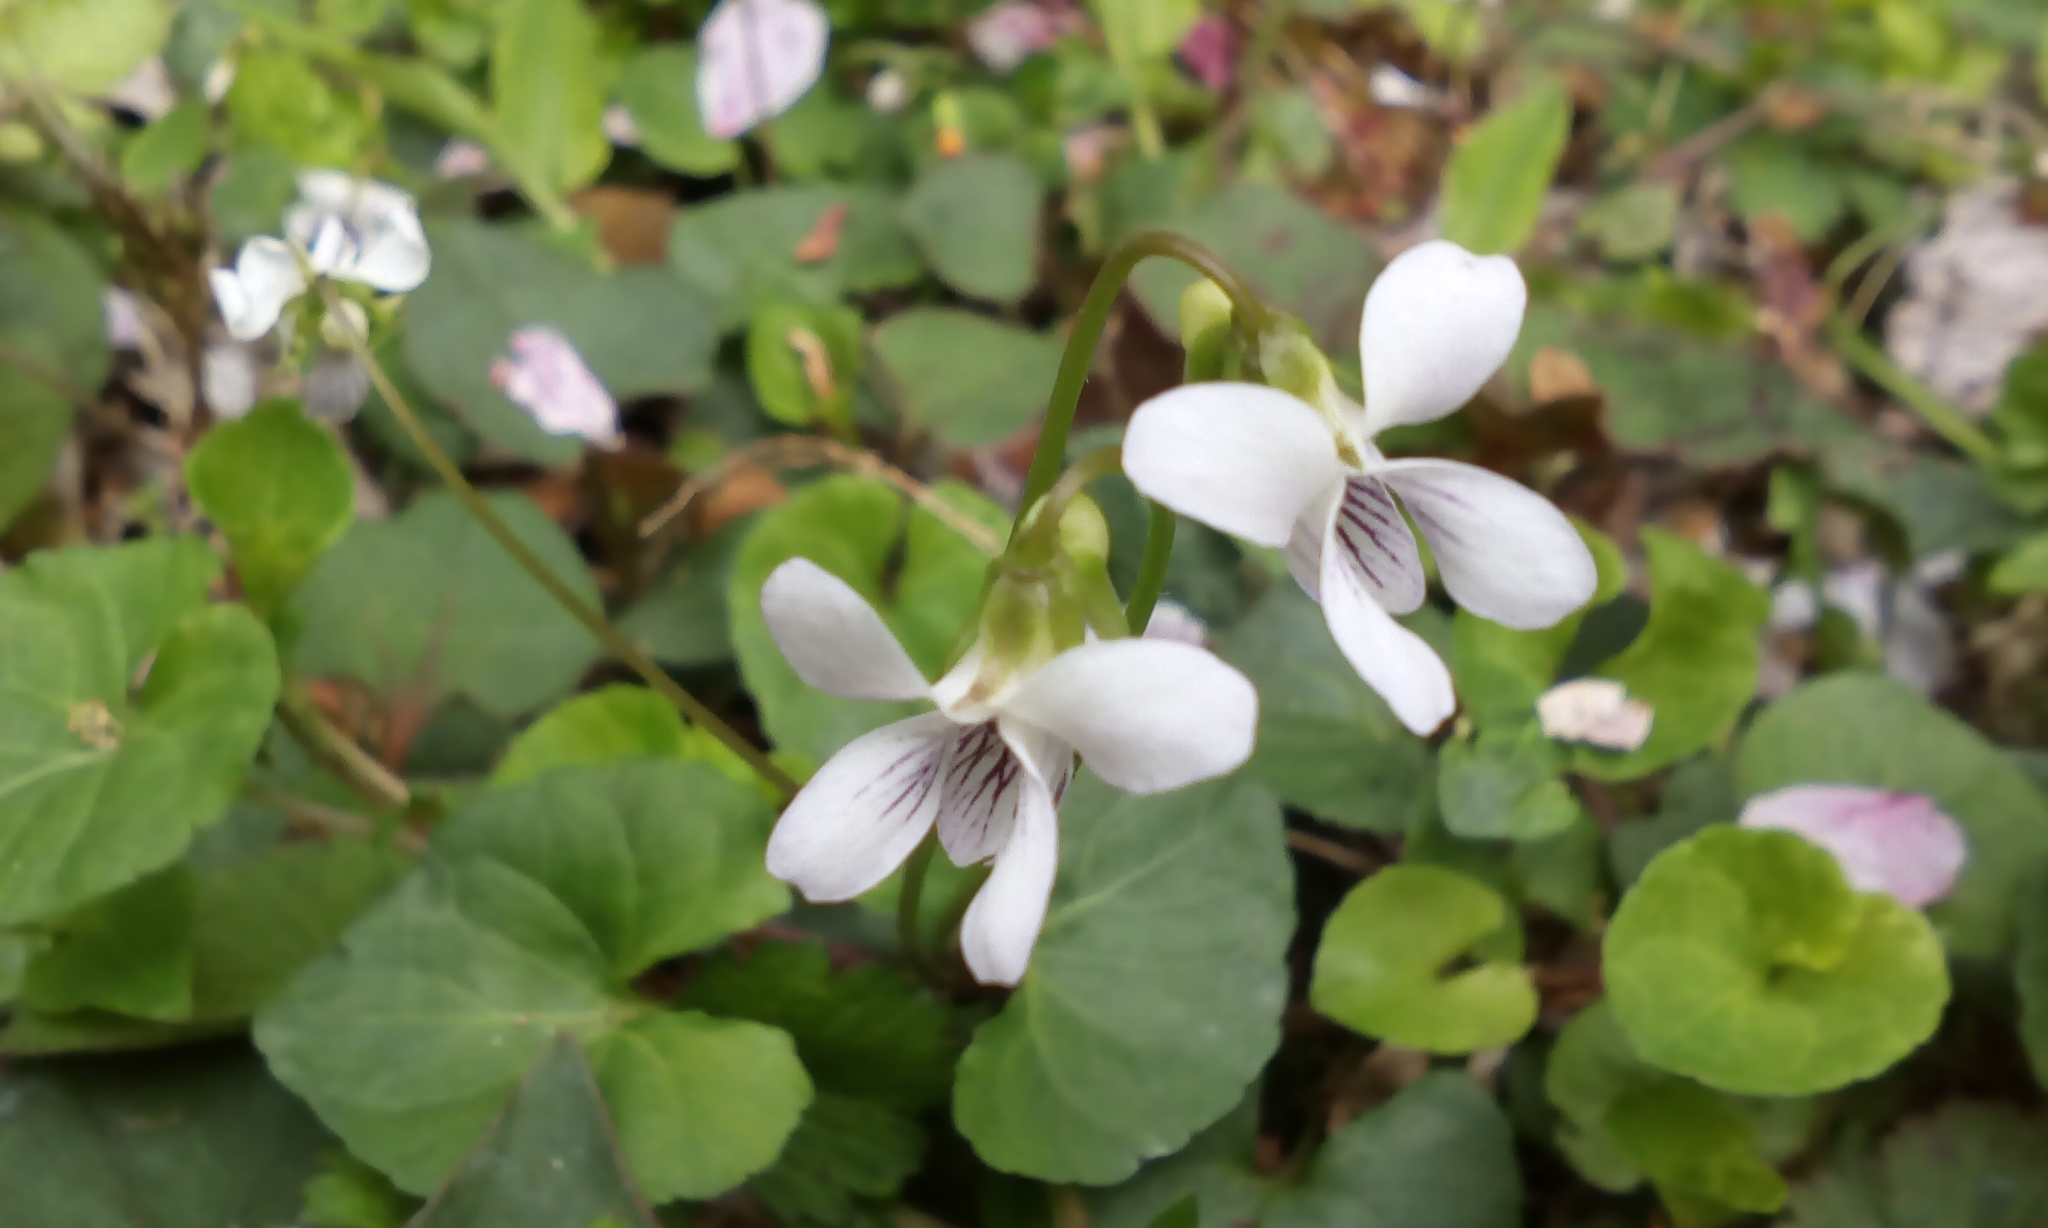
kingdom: Plantae
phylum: Tracheophyta
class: Magnoliopsida
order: Malpighiales
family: Violaceae
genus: Viola
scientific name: Viola
